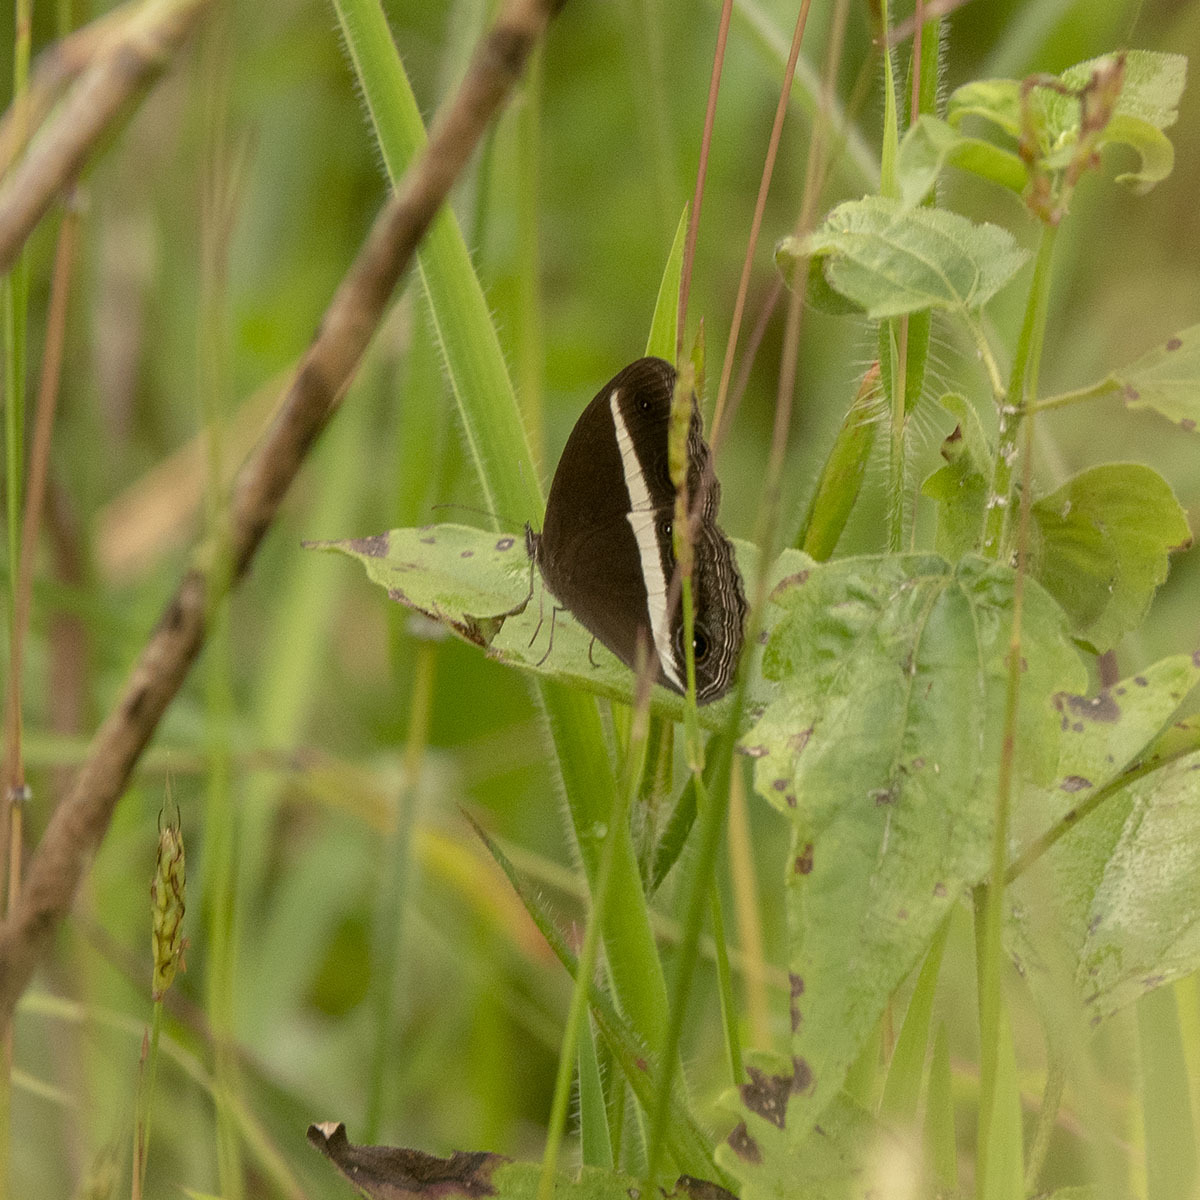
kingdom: Animalia
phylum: Arthropoda
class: Insecta
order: Lepidoptera
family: Nymphalidae
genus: Orsotriaena
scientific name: Orsotriaena medus
